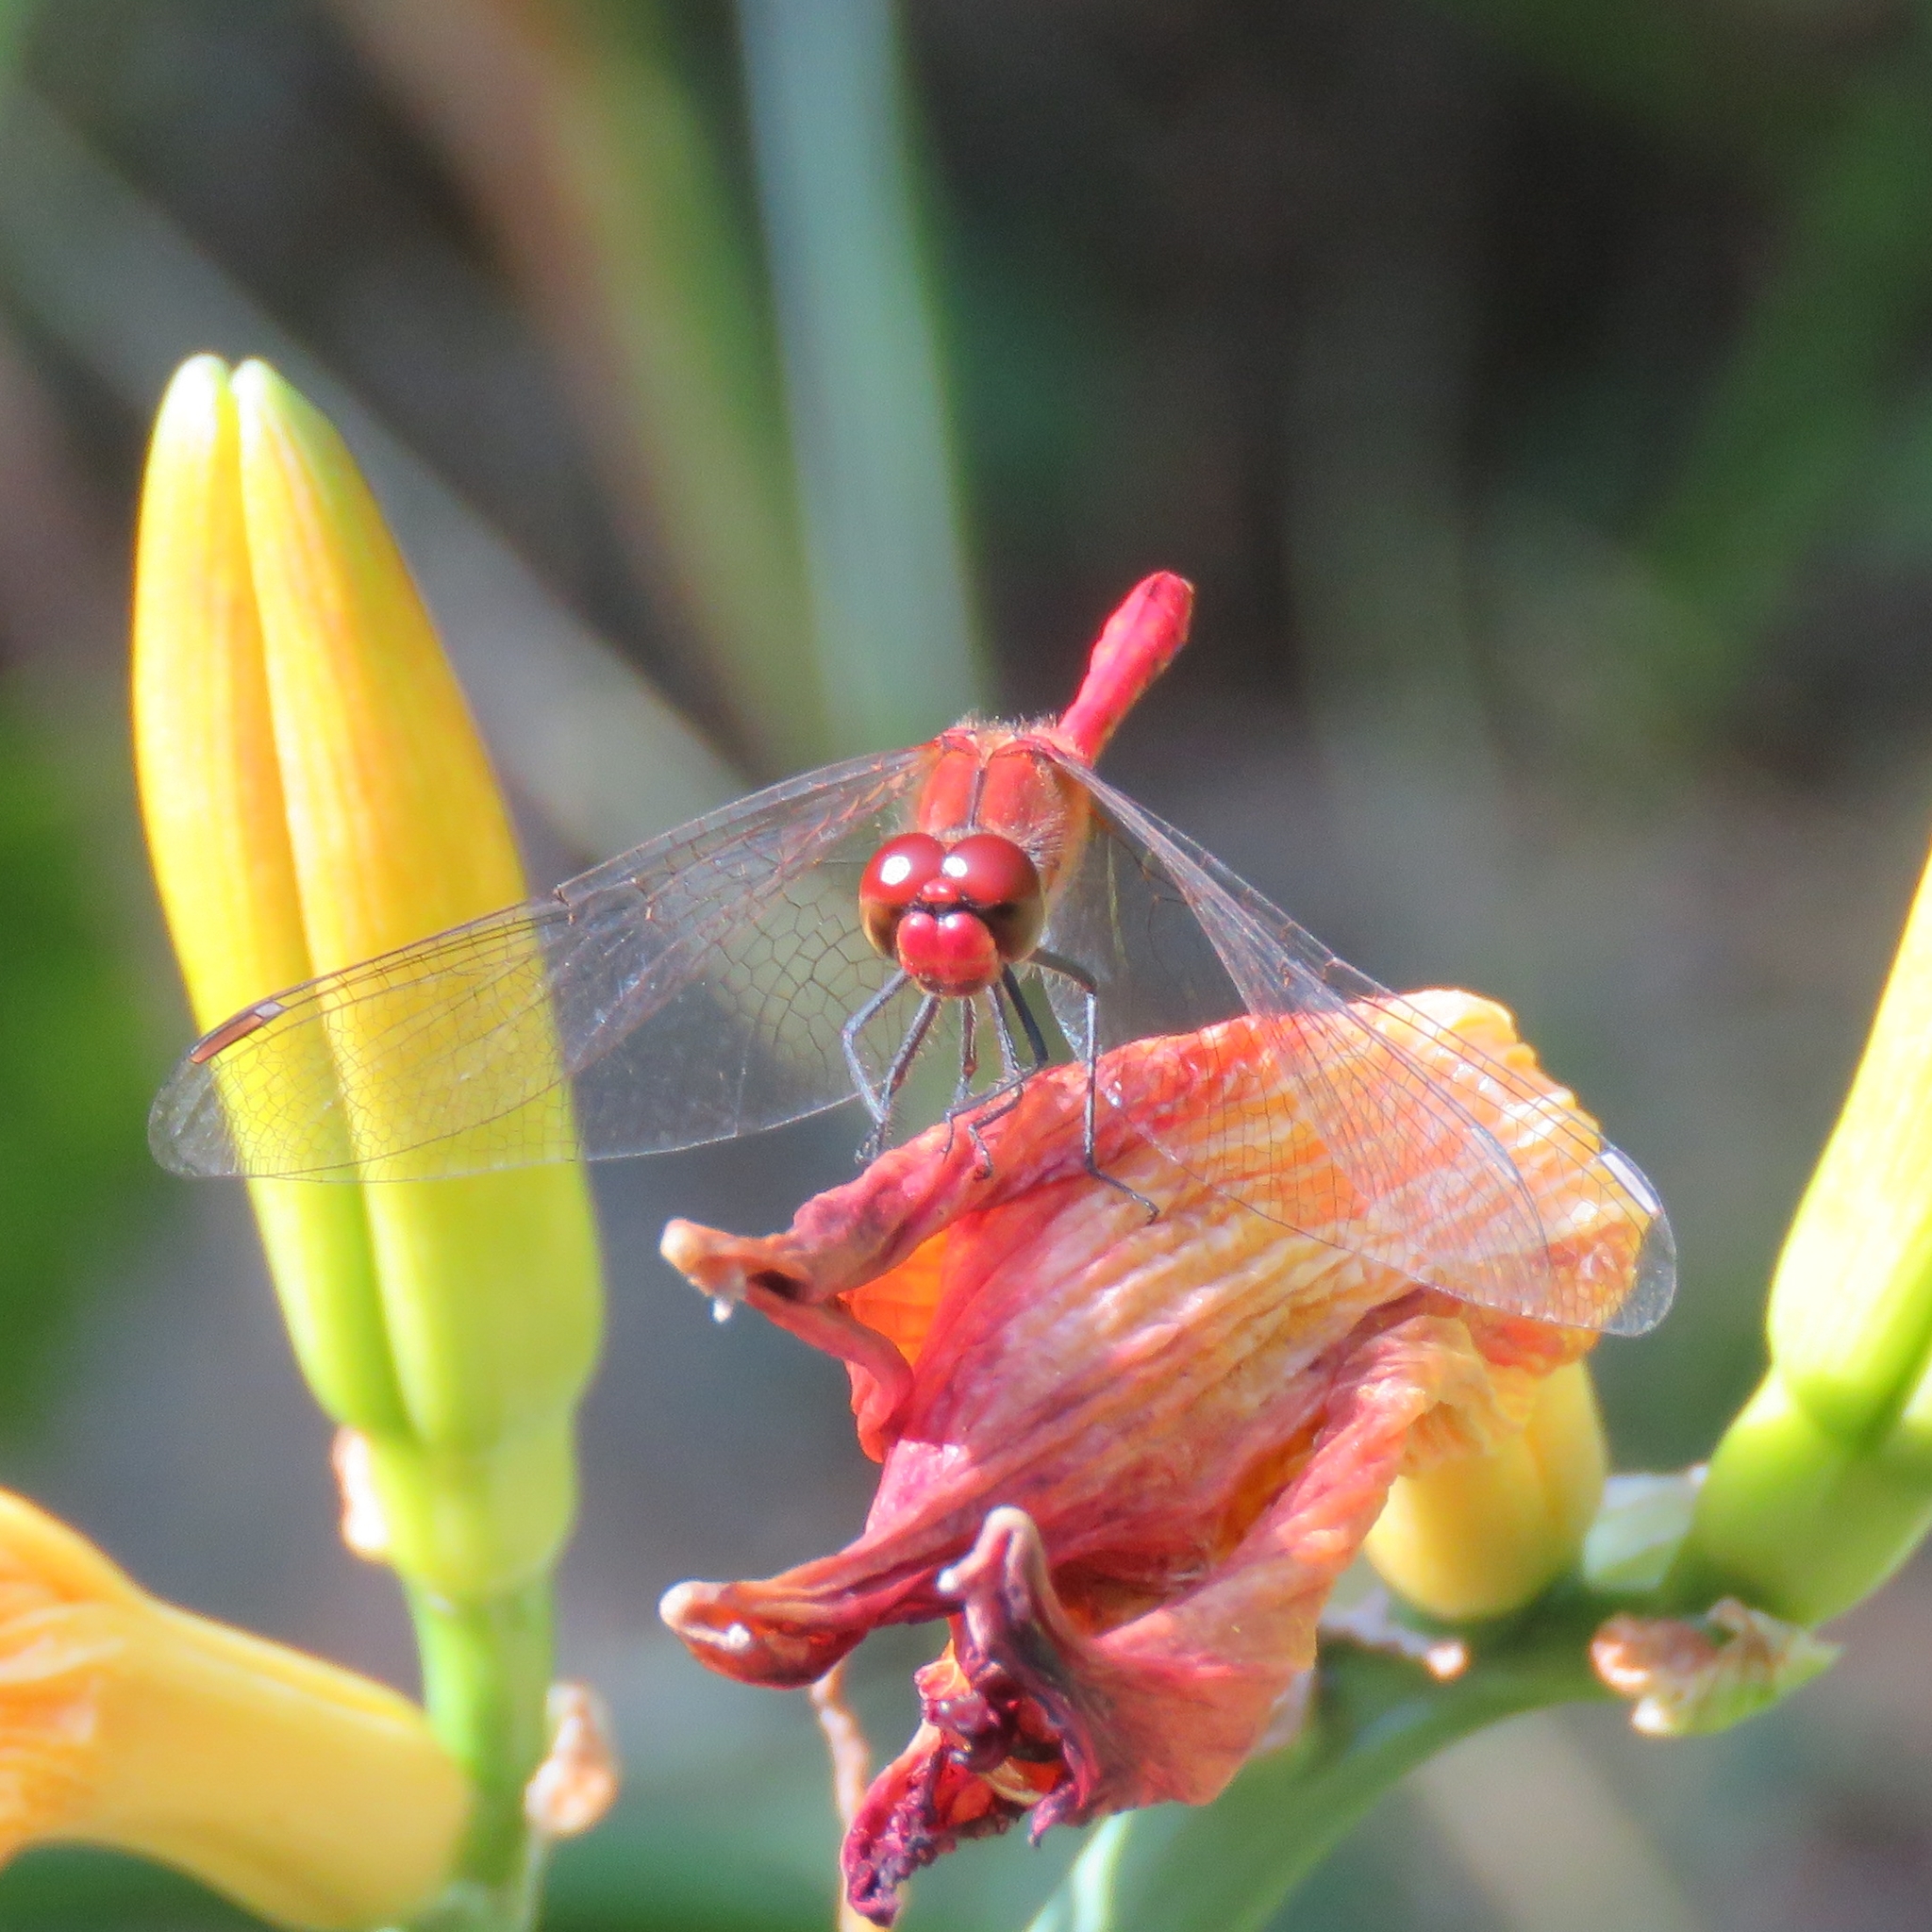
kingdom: Animalia
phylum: Arthropoda
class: Insecta
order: Odonata
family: Libellulidae
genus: Sympetrum
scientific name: Sympetrum sanguineum
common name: Ruddy darter
